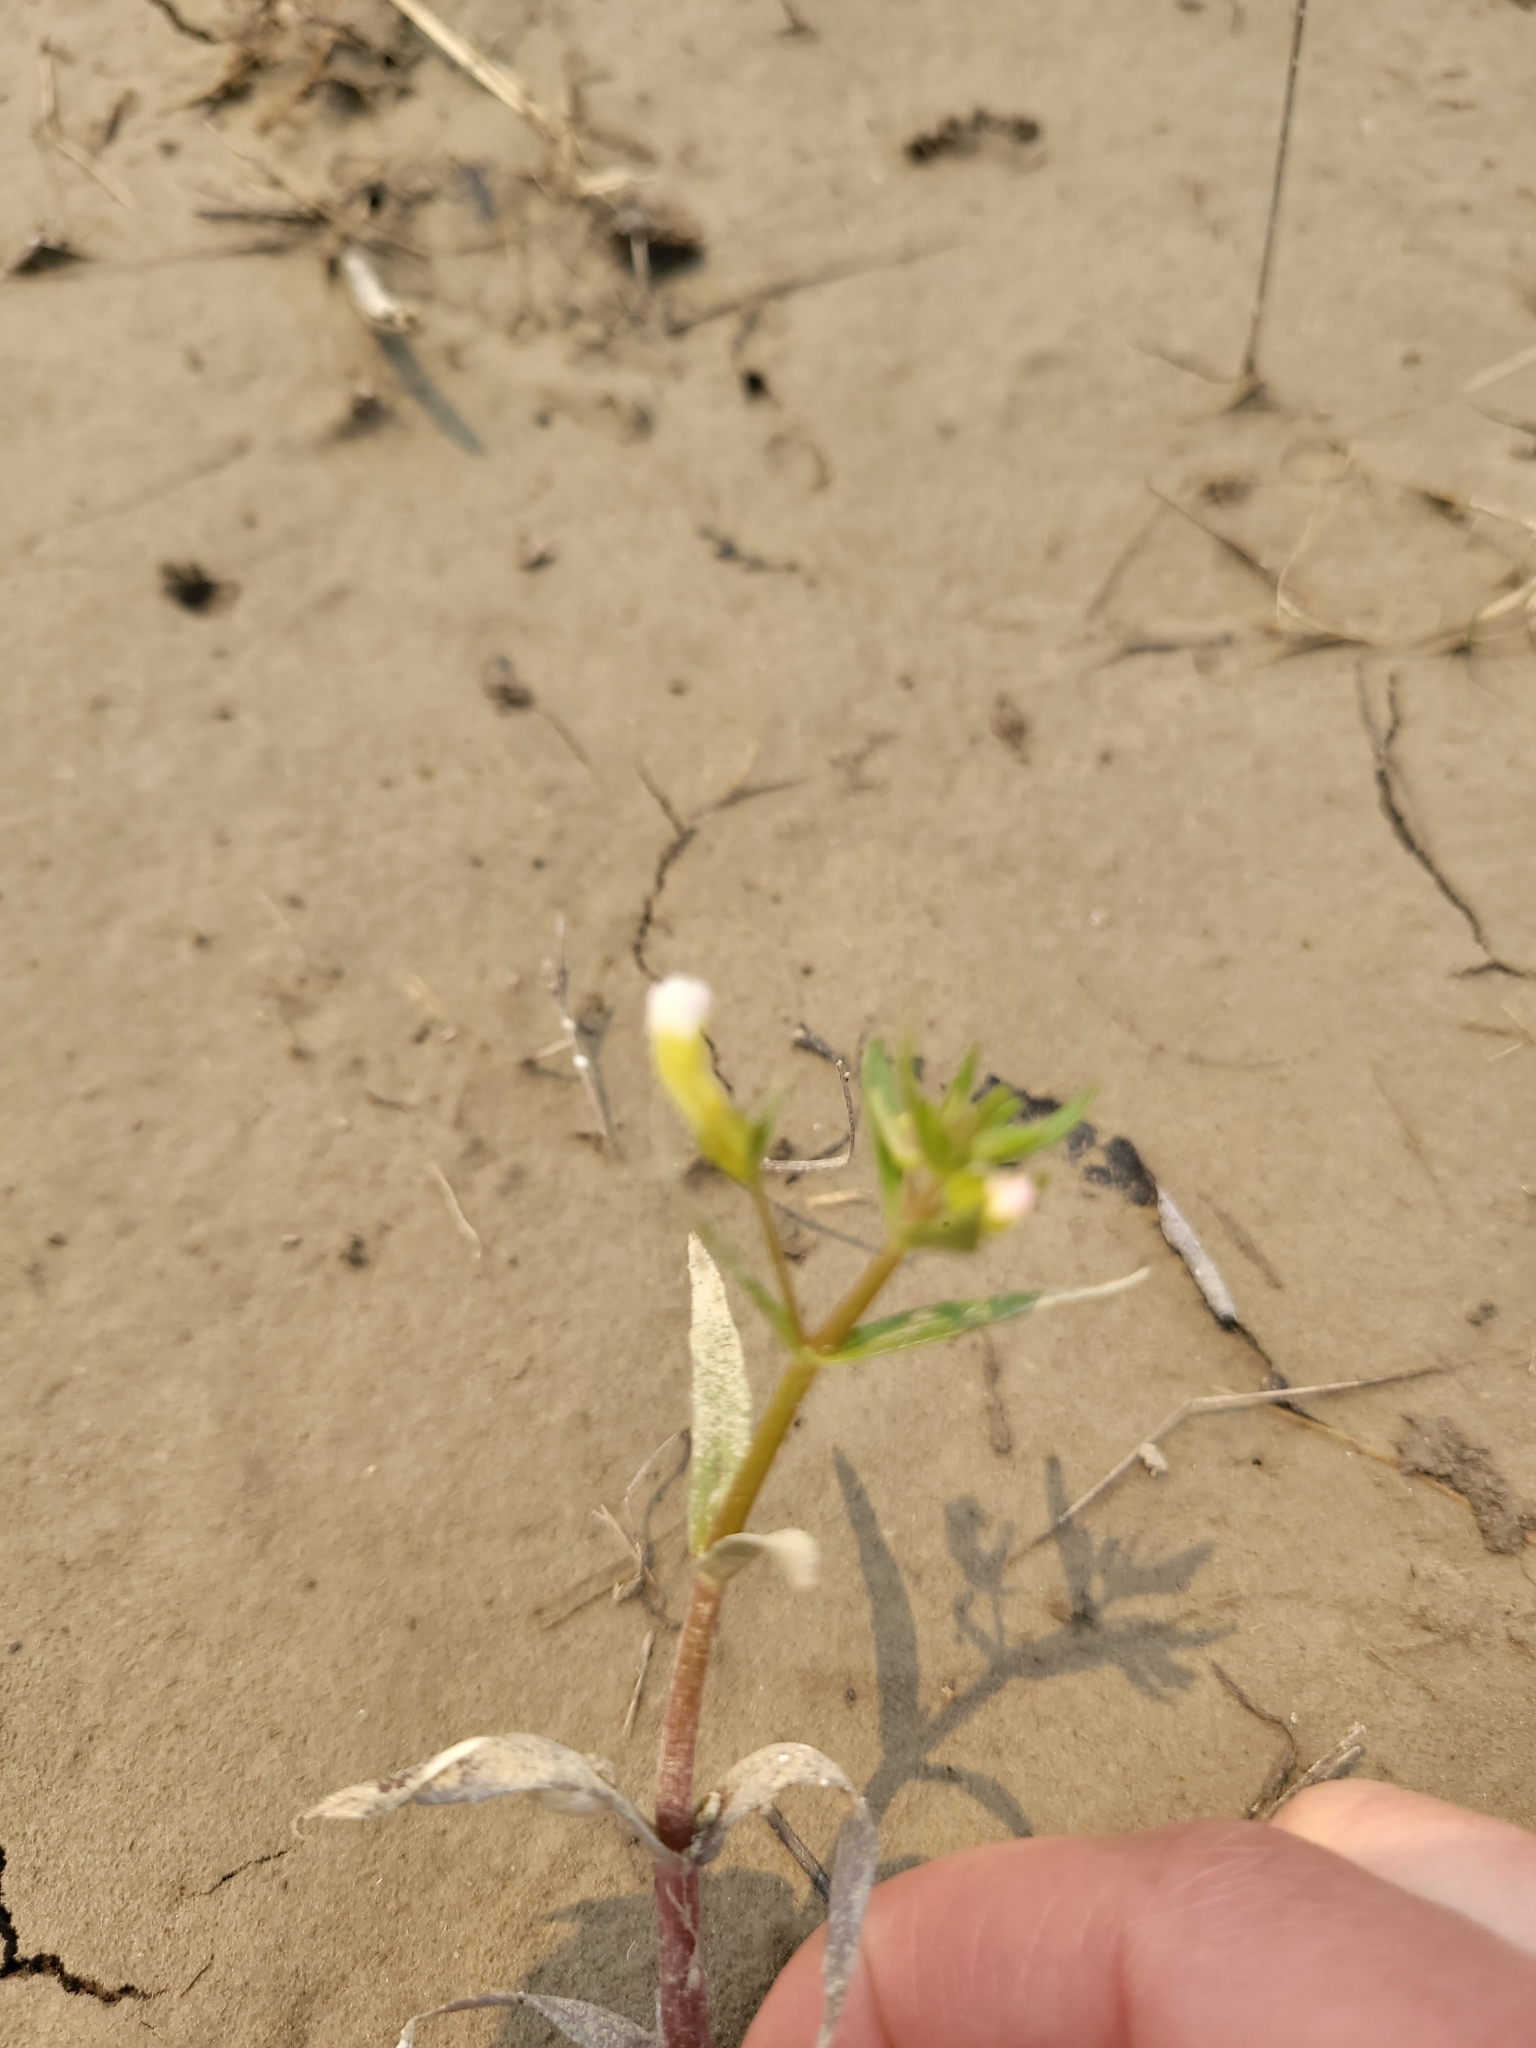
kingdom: Plantae
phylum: Tracheophyta
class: Magnoliopsida
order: Lamiales
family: Plantaginaceae
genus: Gratiola
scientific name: Gratiola quartermaniae
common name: Quarterman's hedge-hyssop
